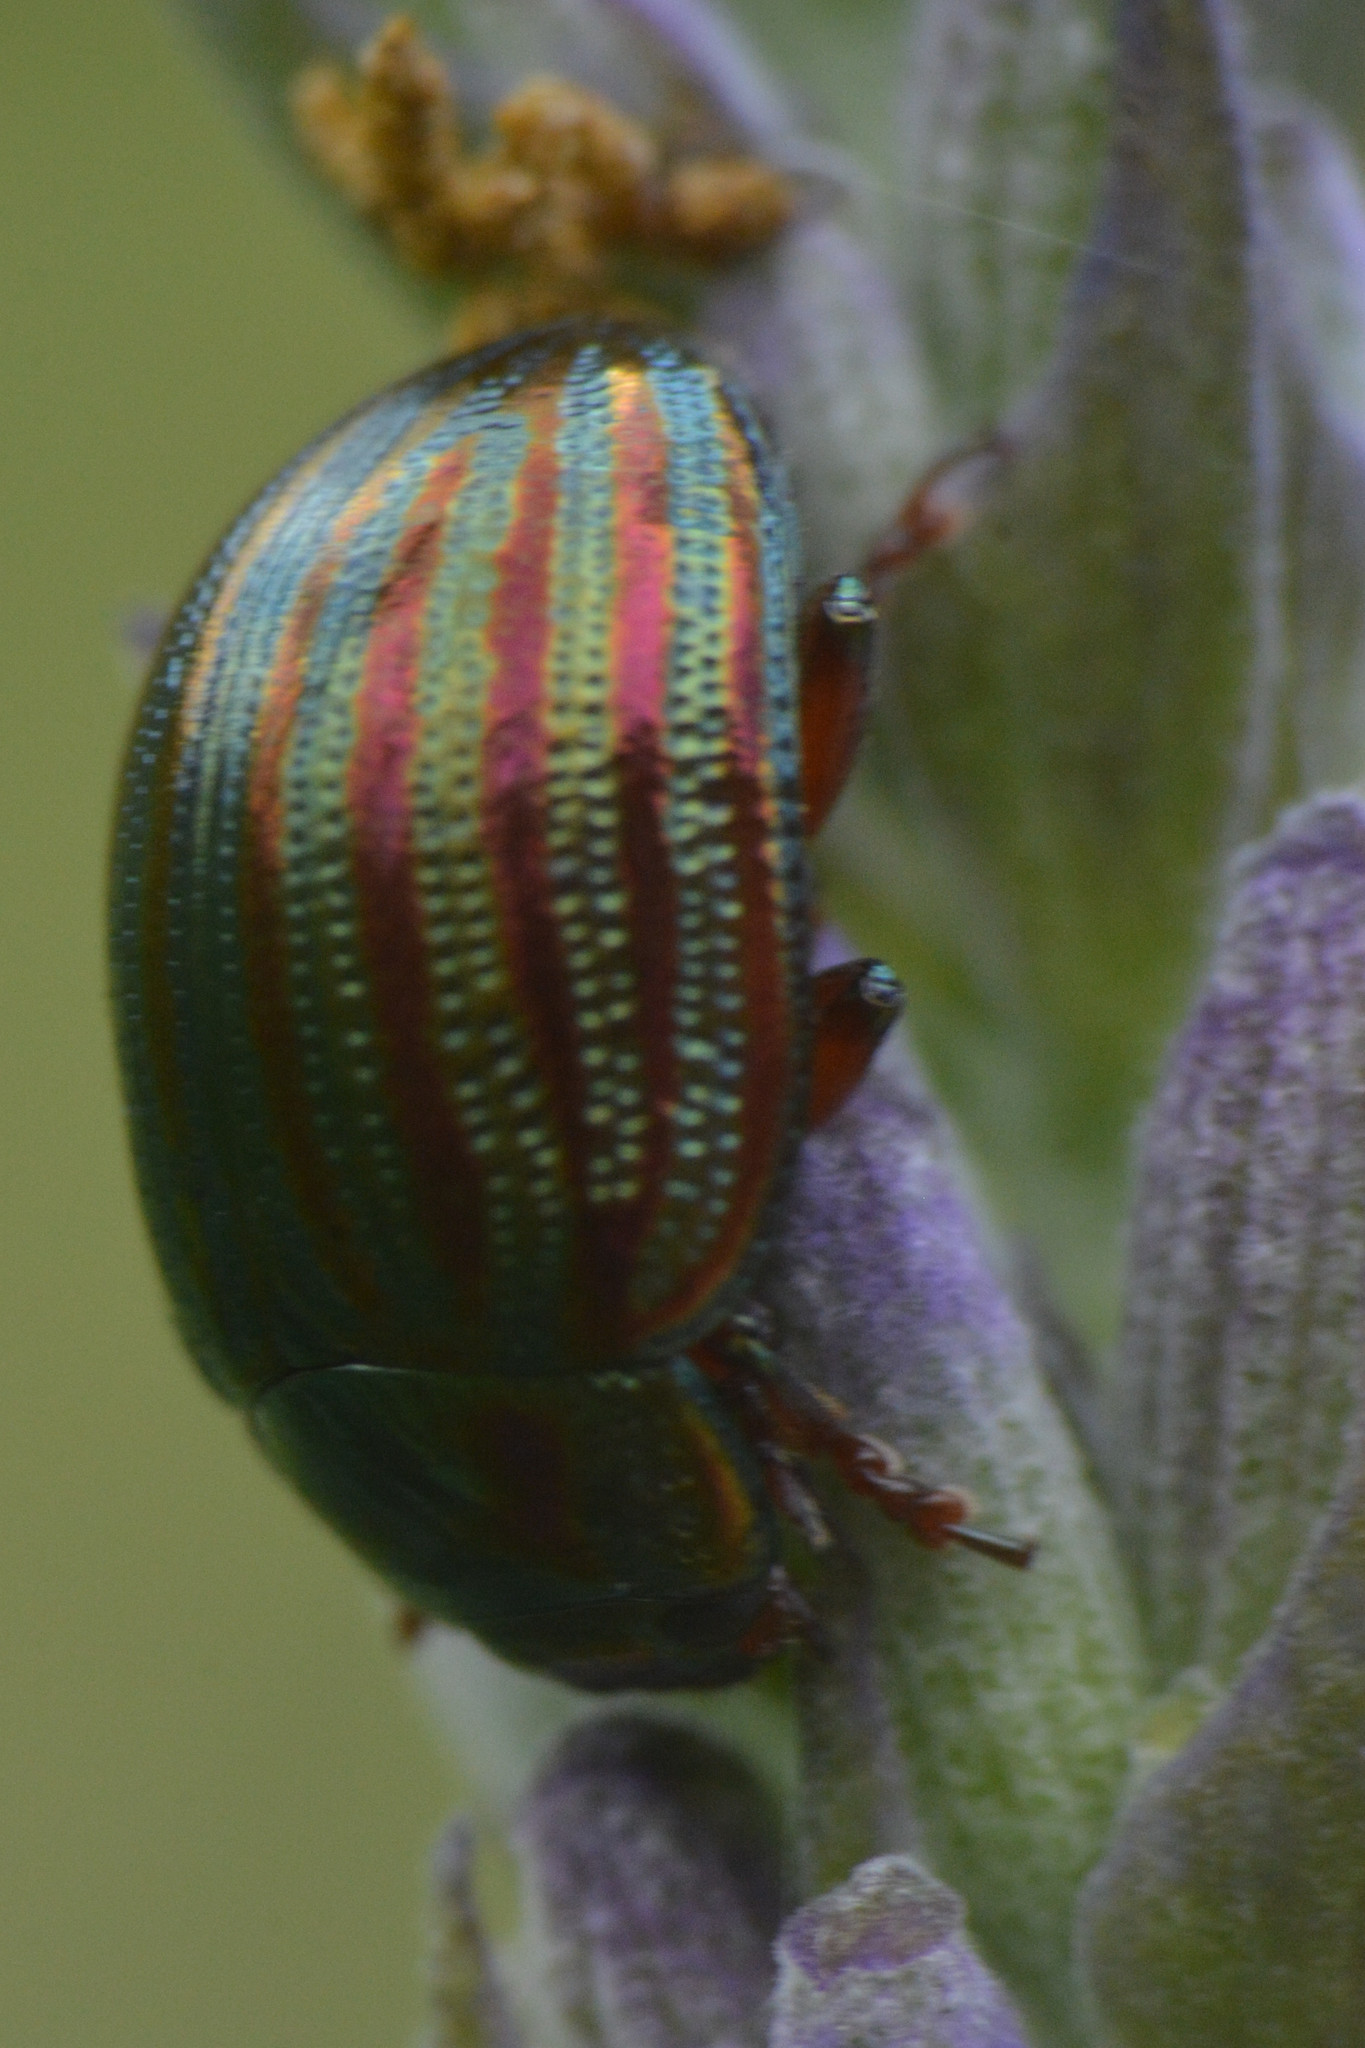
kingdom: Animalia
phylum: Arthropoda
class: Insecta
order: Coleoptera
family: Chrysomelidae
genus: Chrysolina
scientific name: Chrysolina americana
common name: Rosemary beetle
